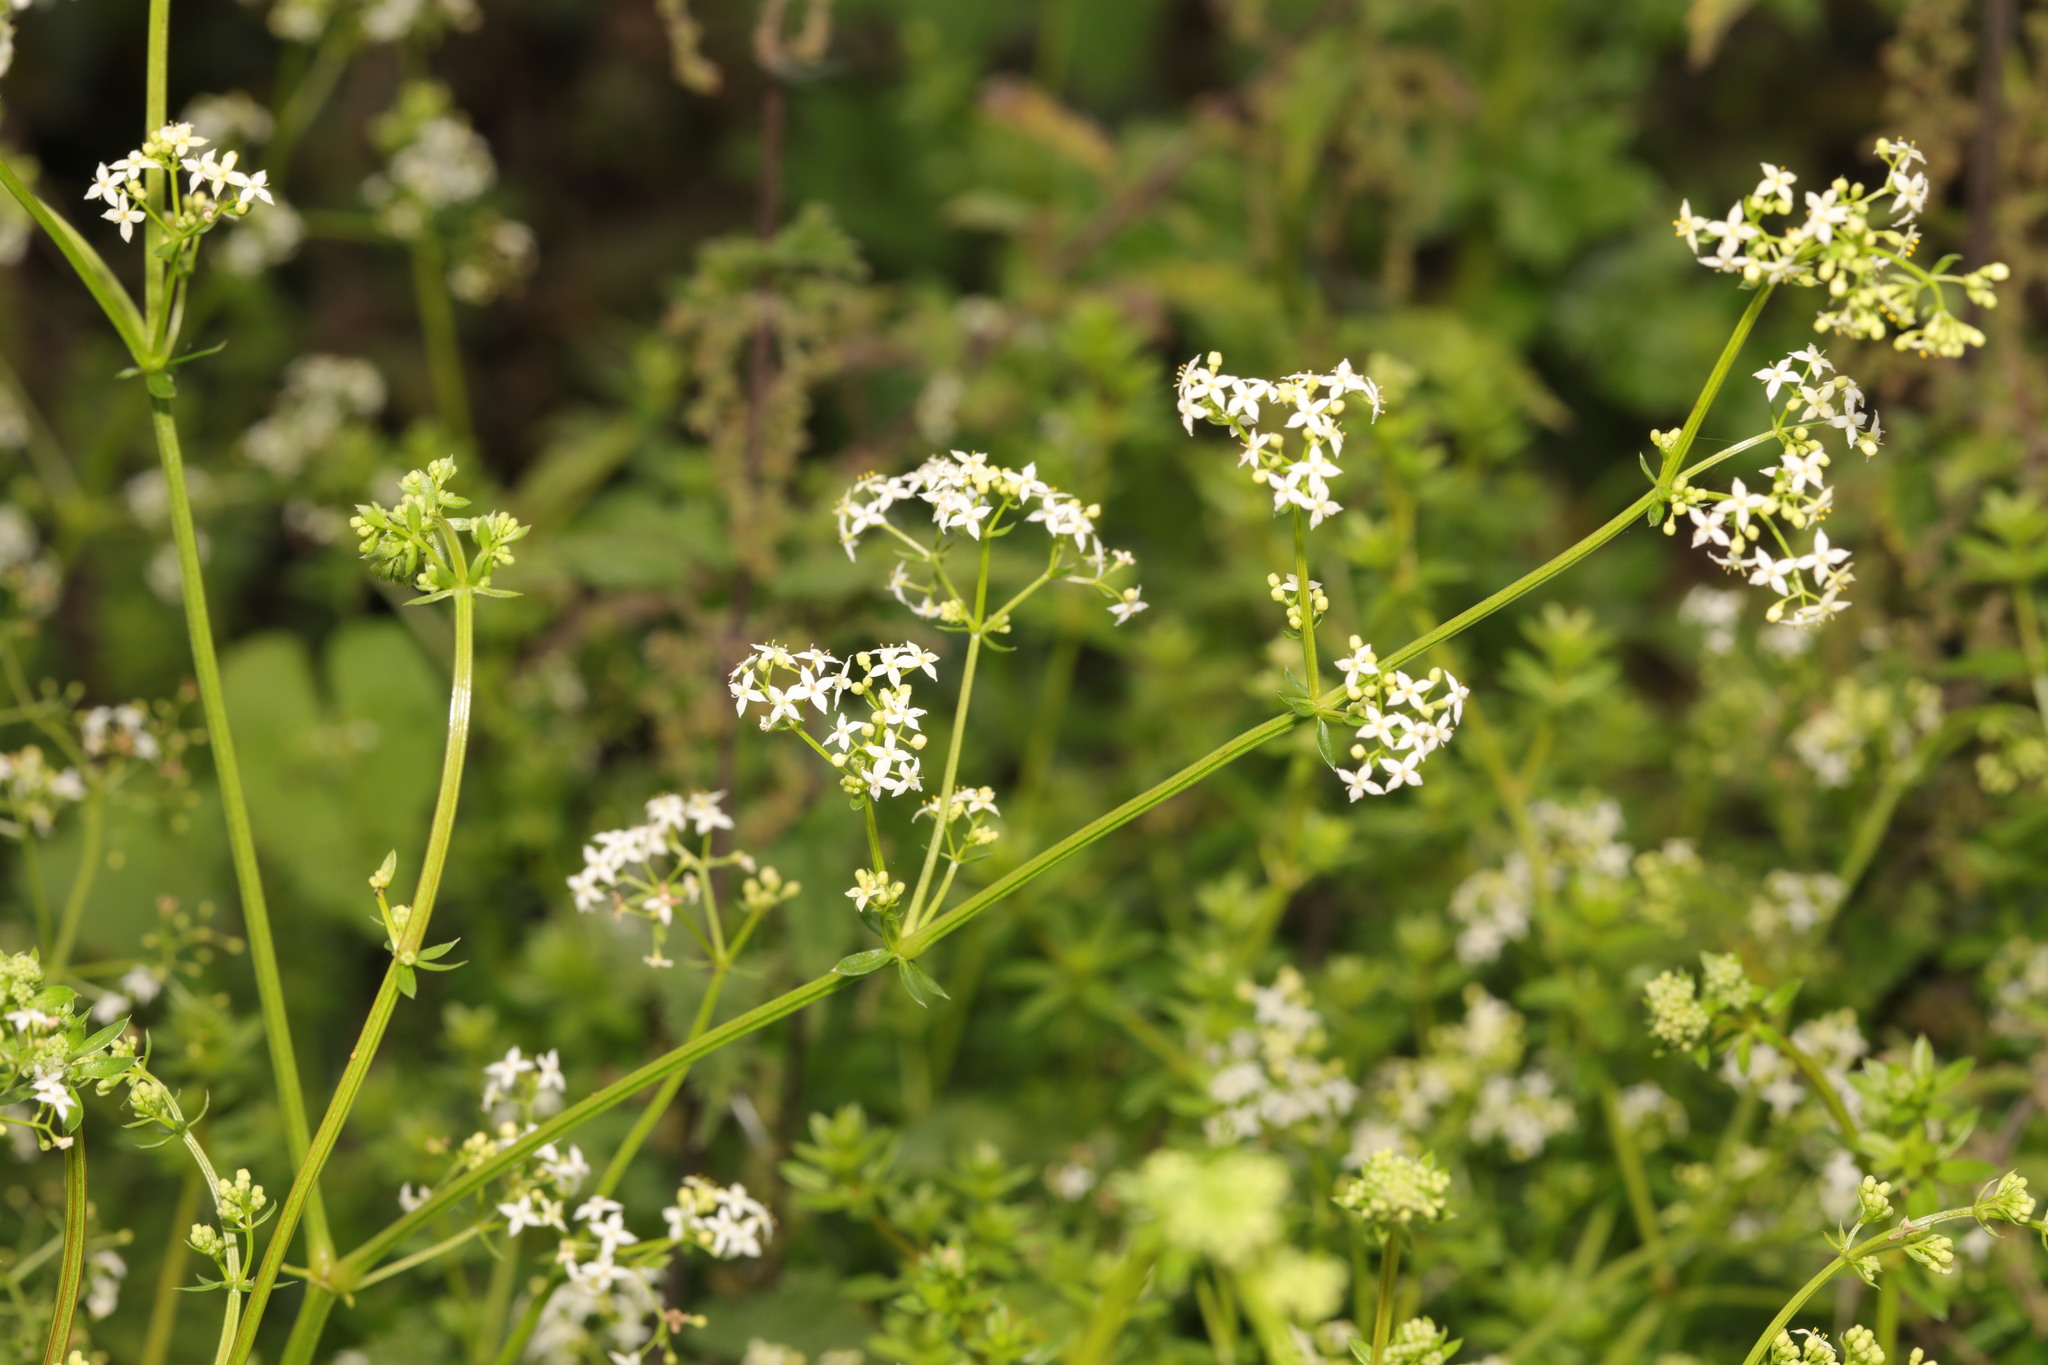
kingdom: Plantae
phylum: Tracheophyta
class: Magnoliopsida
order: Gentianales
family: Rubiaceae
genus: Galium
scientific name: Galium mollugo
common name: Hedge bedstraw
